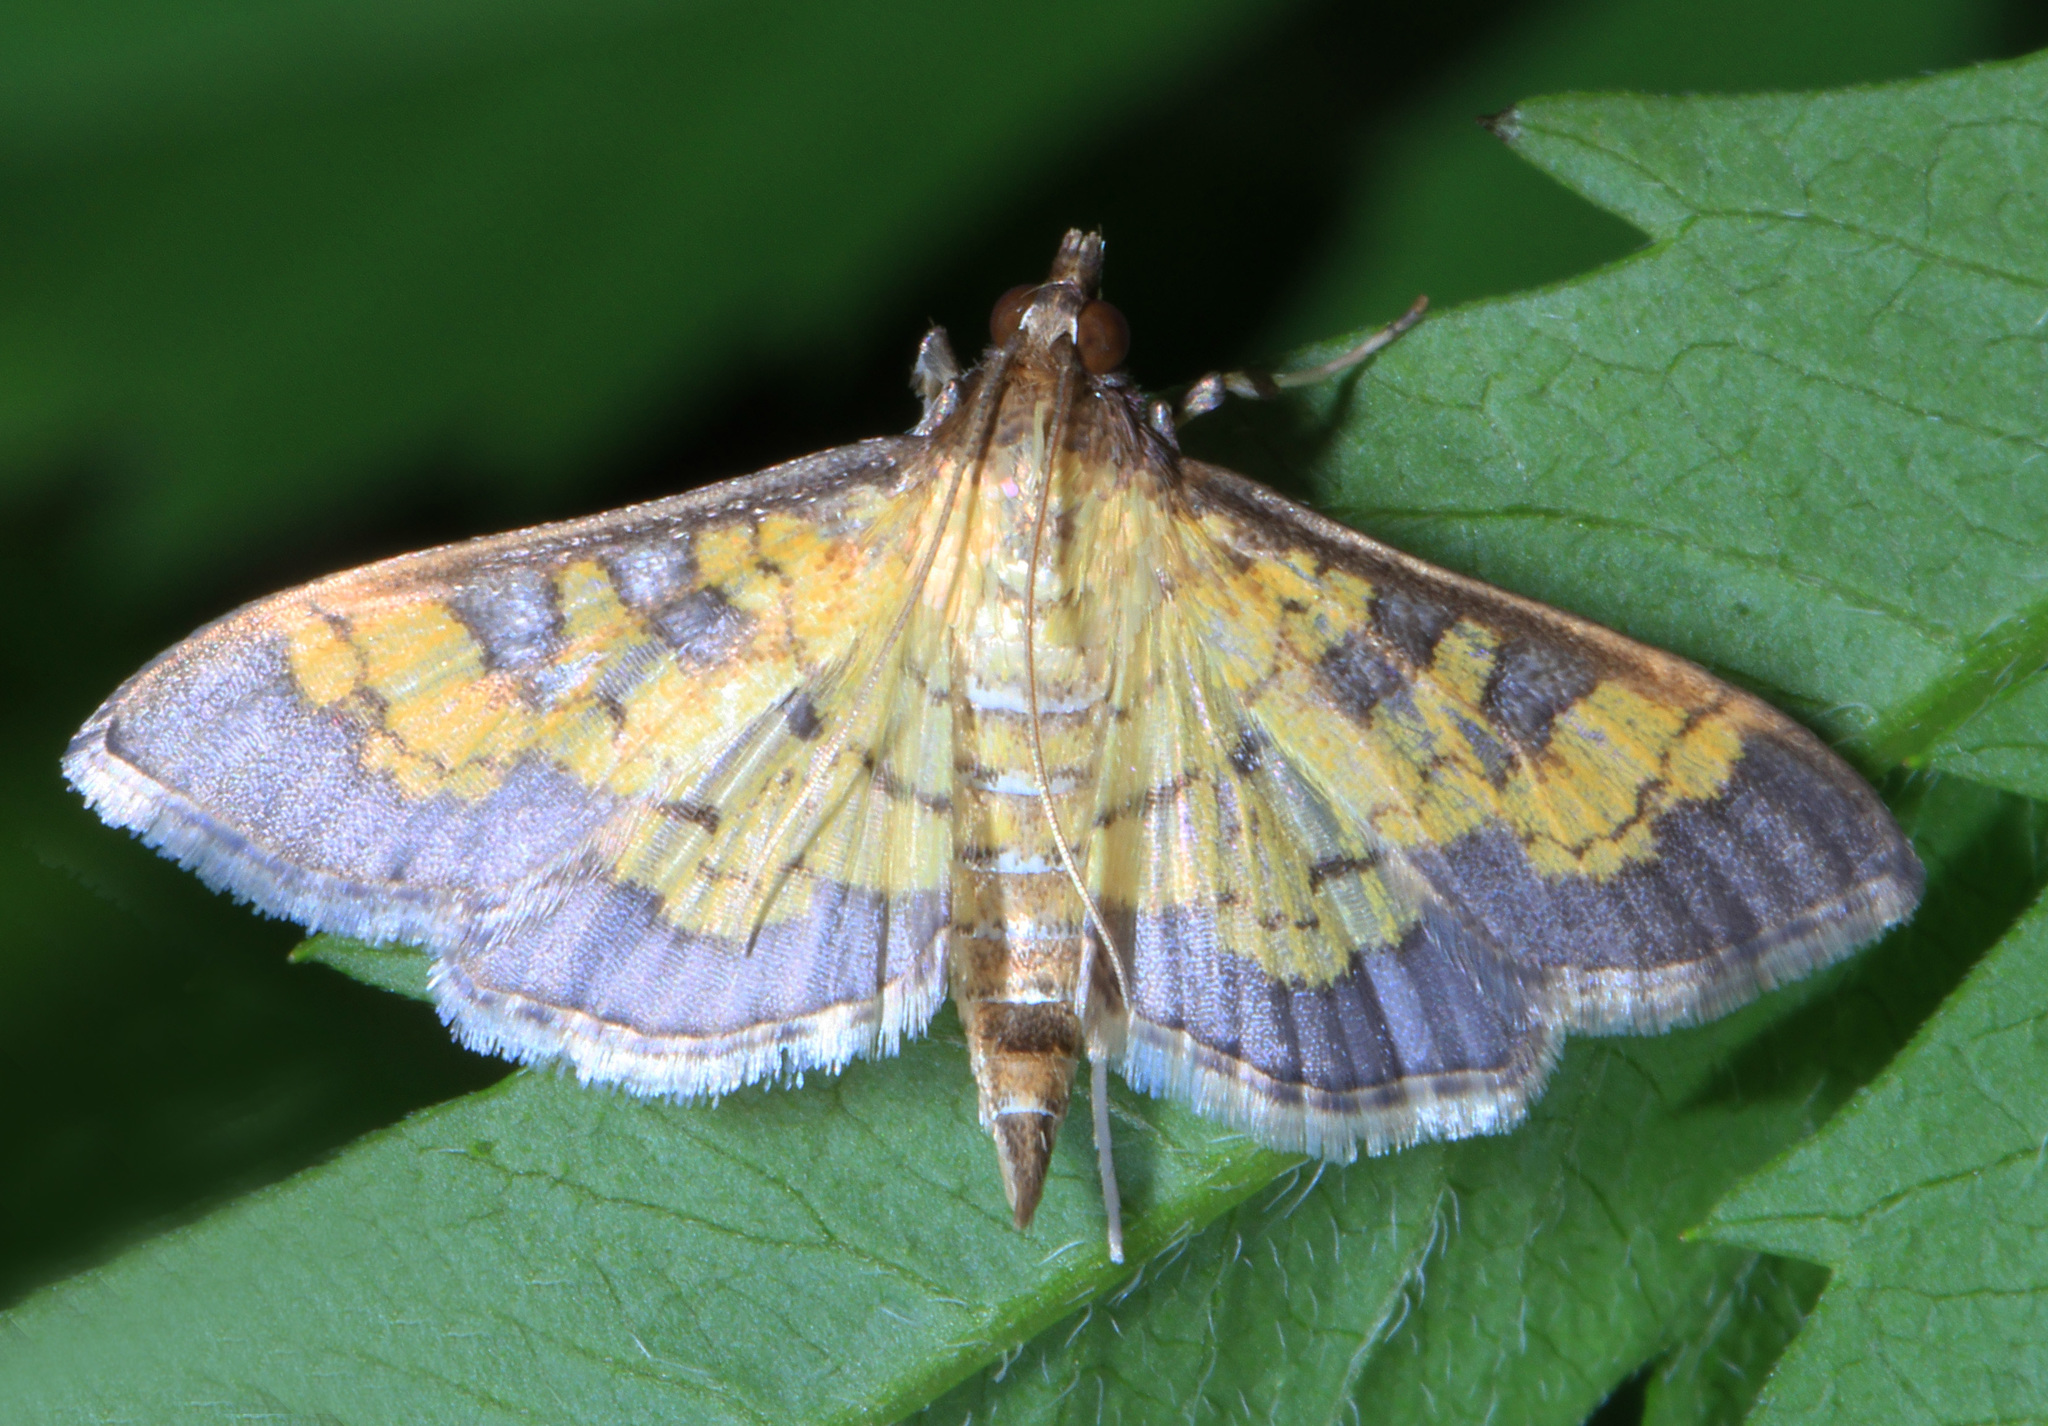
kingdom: Animalia
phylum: Arthropoda
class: Insecta
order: Lepidoptera
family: Crambidae
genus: Epipagis
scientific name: Epipagis adipaloides
